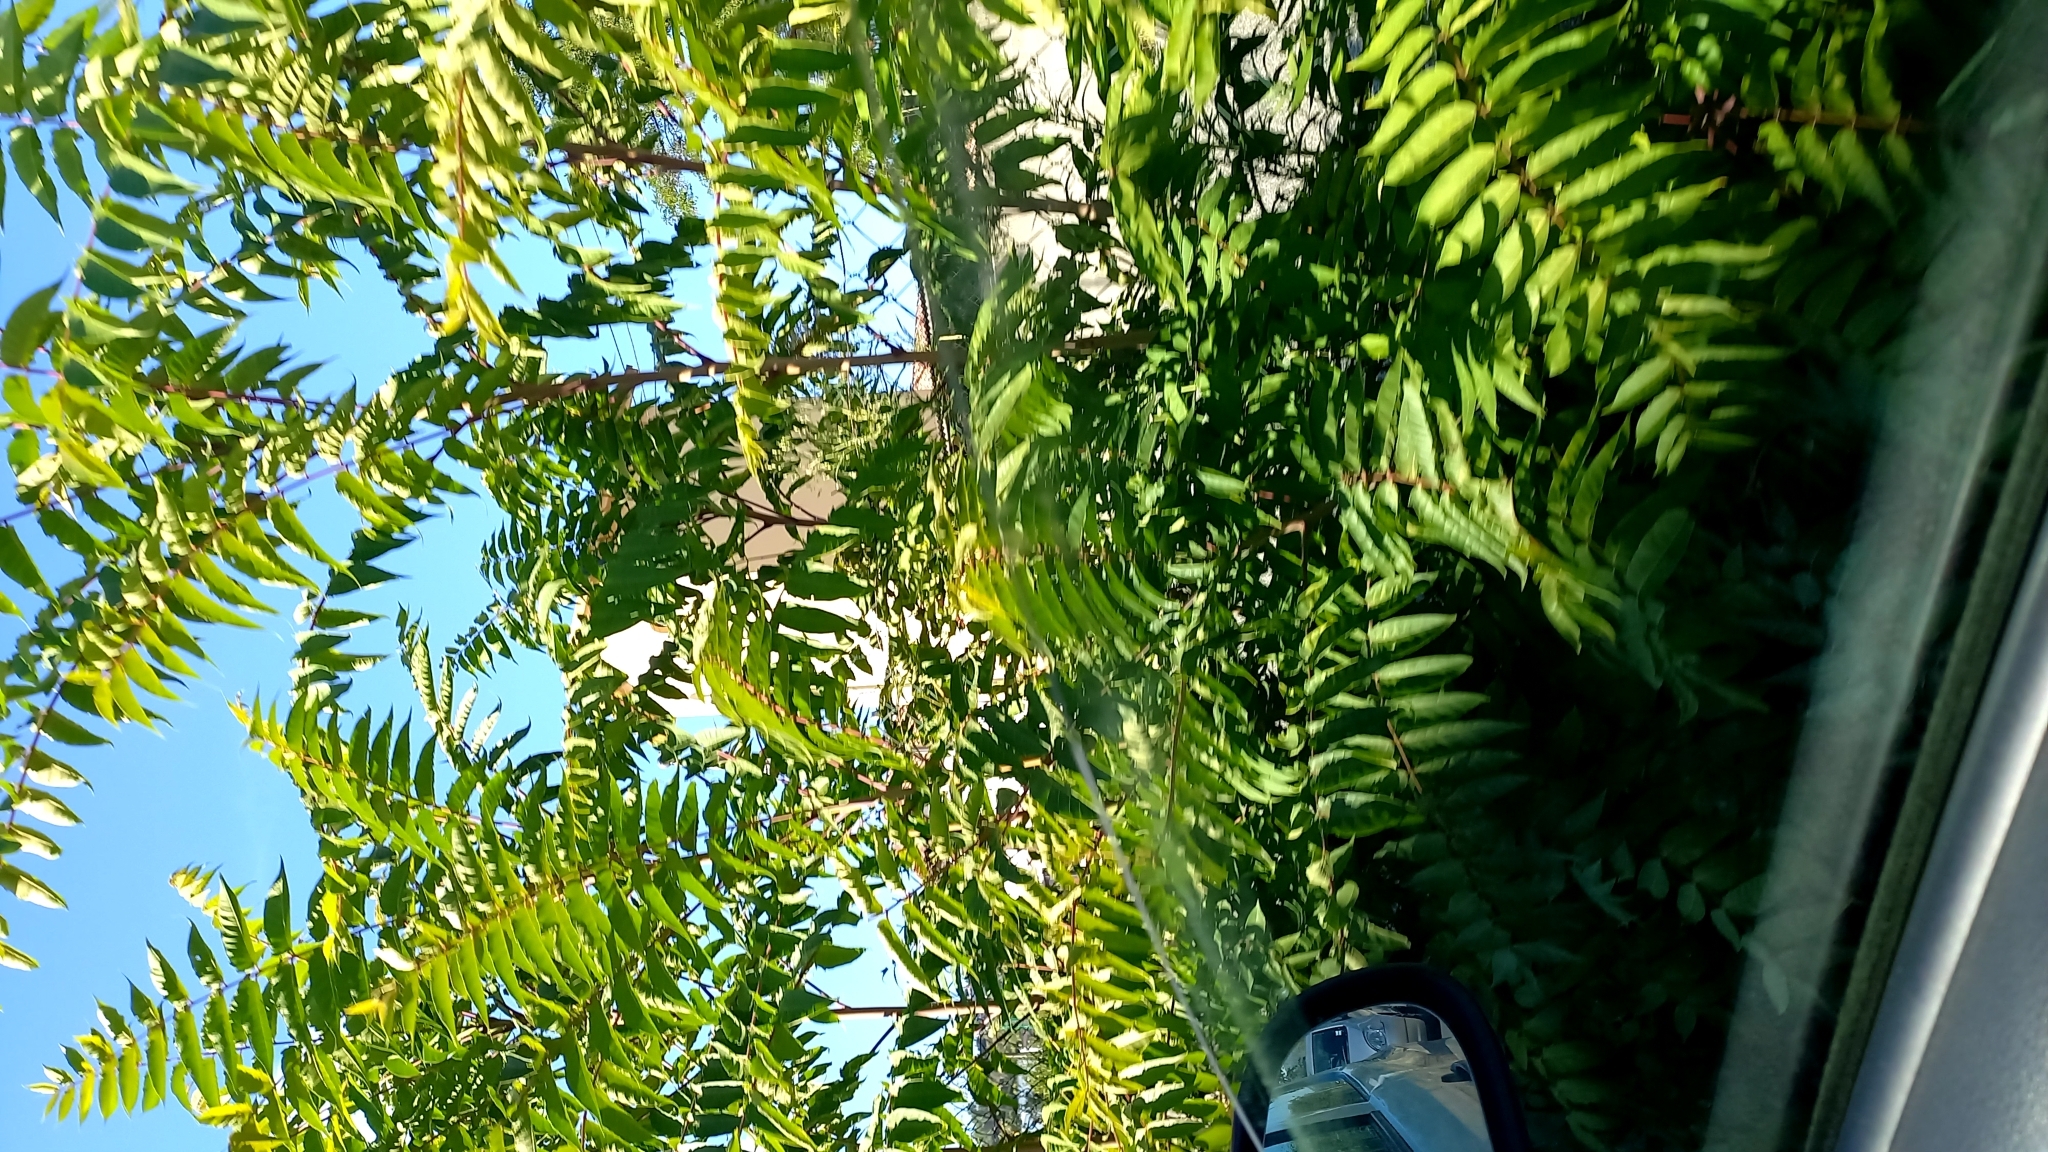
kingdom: Plantae
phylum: Tracheophyta
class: Magnoliopsida
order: Sapindales
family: Simaroubaceae
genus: Ailanthus
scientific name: Ailanthus altissima
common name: Tree-of-heaven
